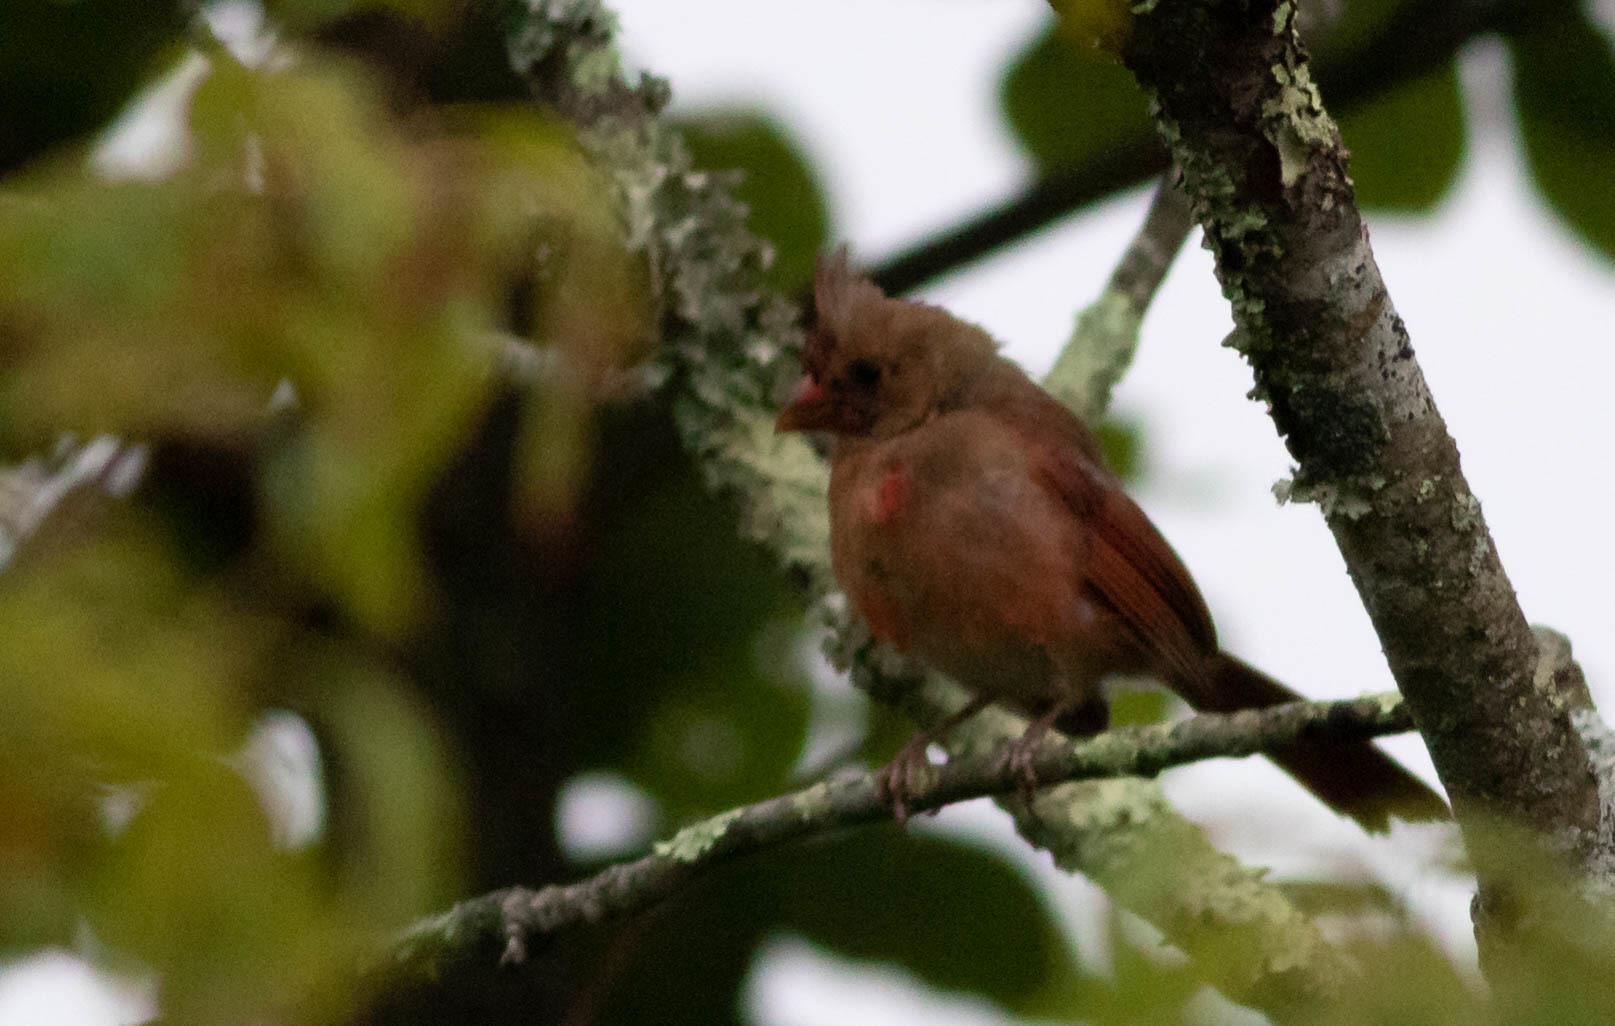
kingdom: Animalia
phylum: Chordata
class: Aves
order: Passeriformes
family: Cardinalidae
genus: Cardinalis
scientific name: Cardinalis cardinalis
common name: Northern cardinal
